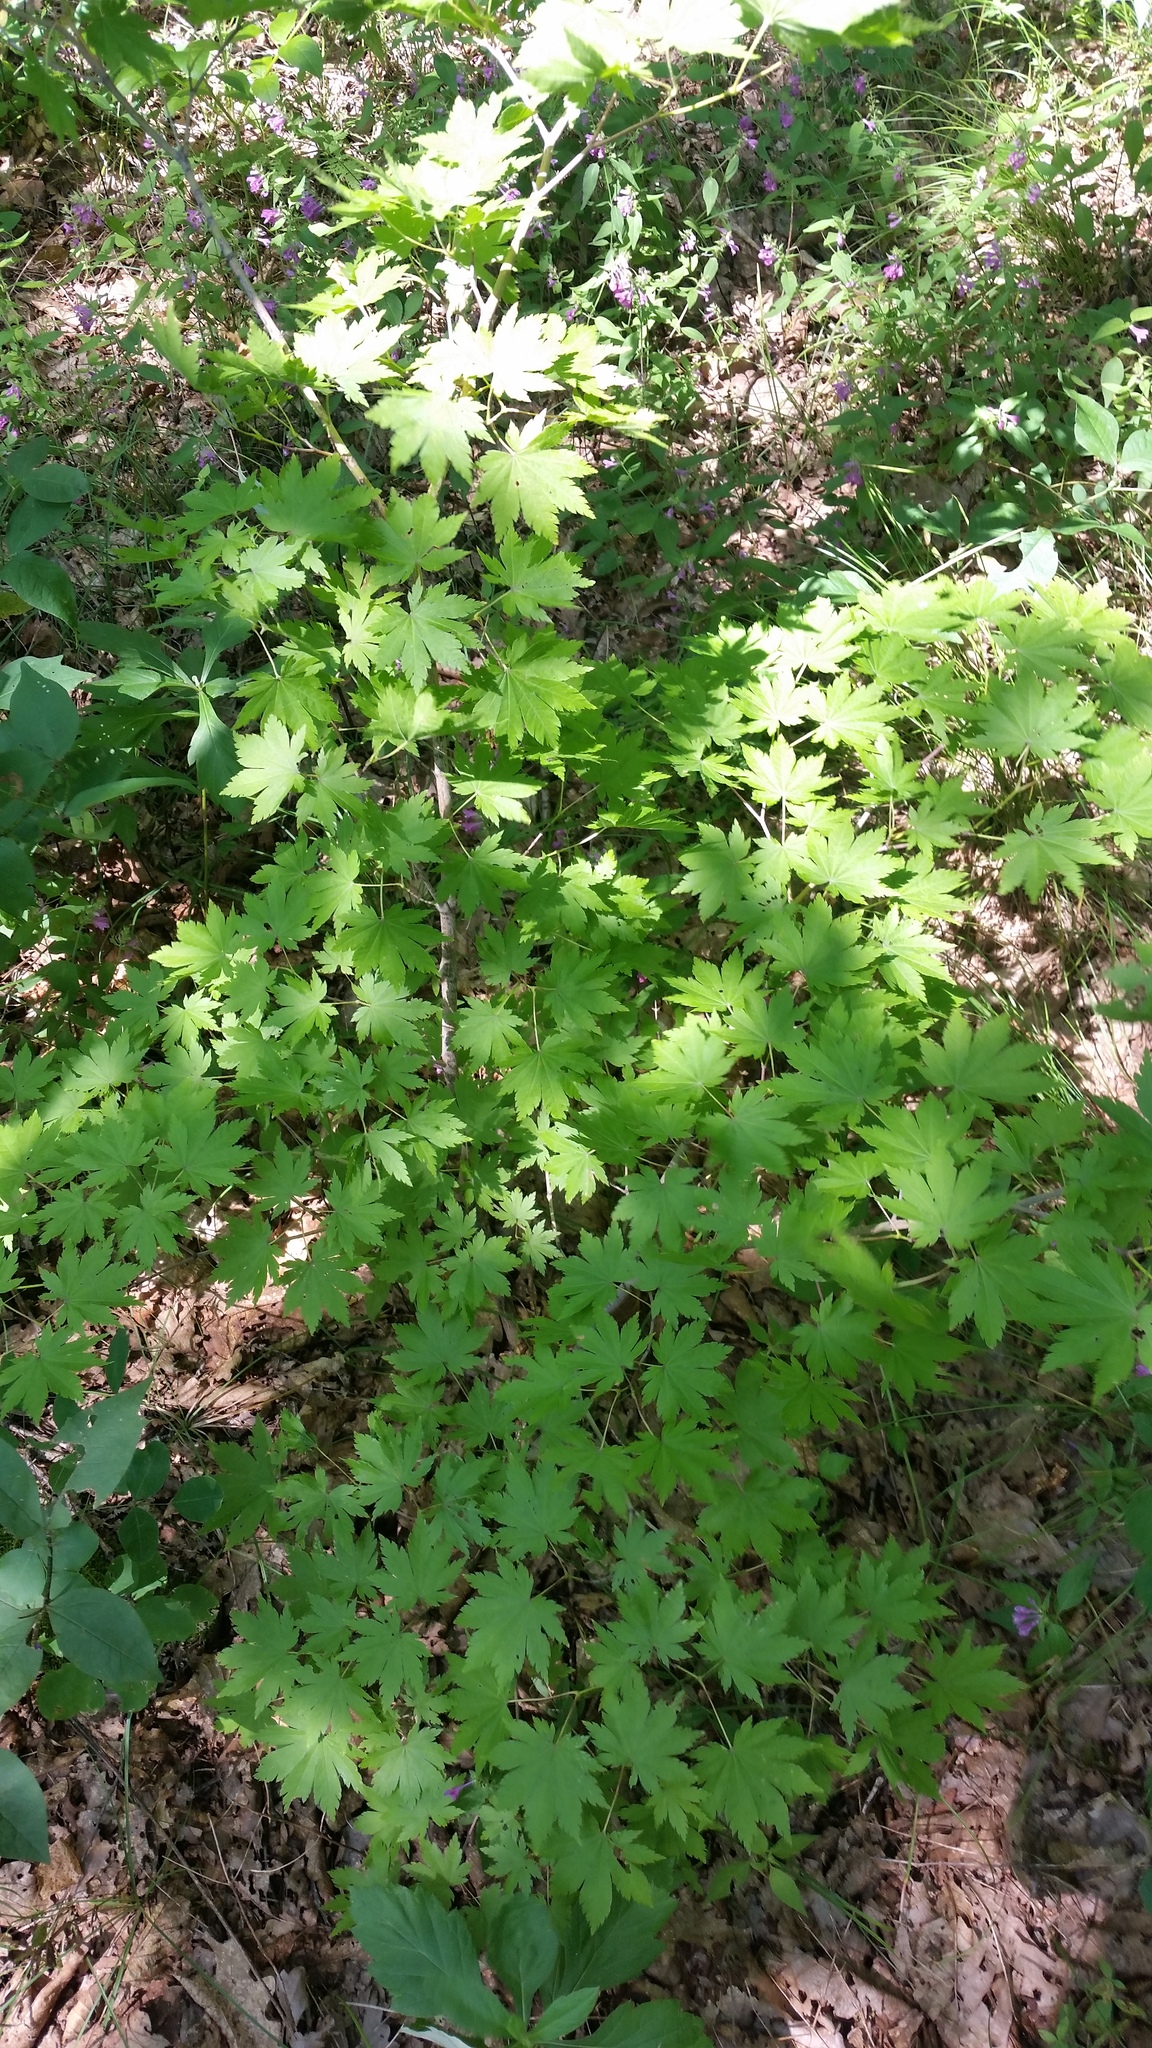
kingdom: Plantae
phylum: Tracheophyta
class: Magnoliopsida
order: Sapindales
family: Sapindaceae
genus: Acer
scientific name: Acer pseudosieboldianum
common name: Korean maple
